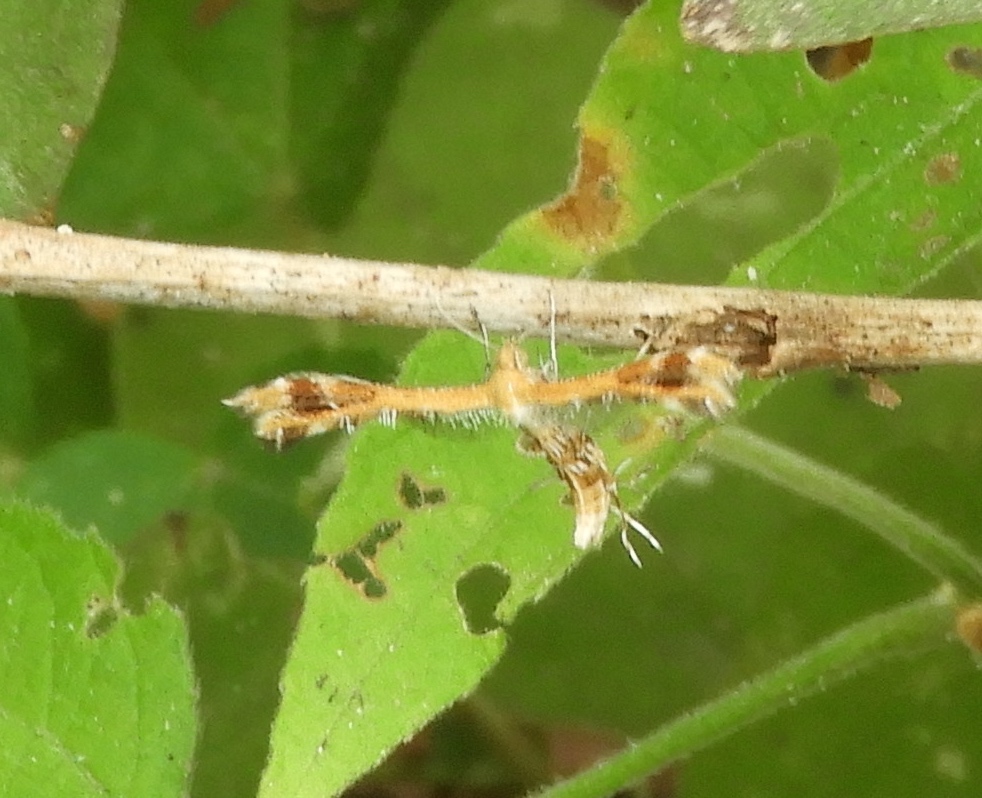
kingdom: Animalia
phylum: Arthropoda
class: Insecta
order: Lepidoptera
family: Pterophoridae
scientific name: Pterophoridae
